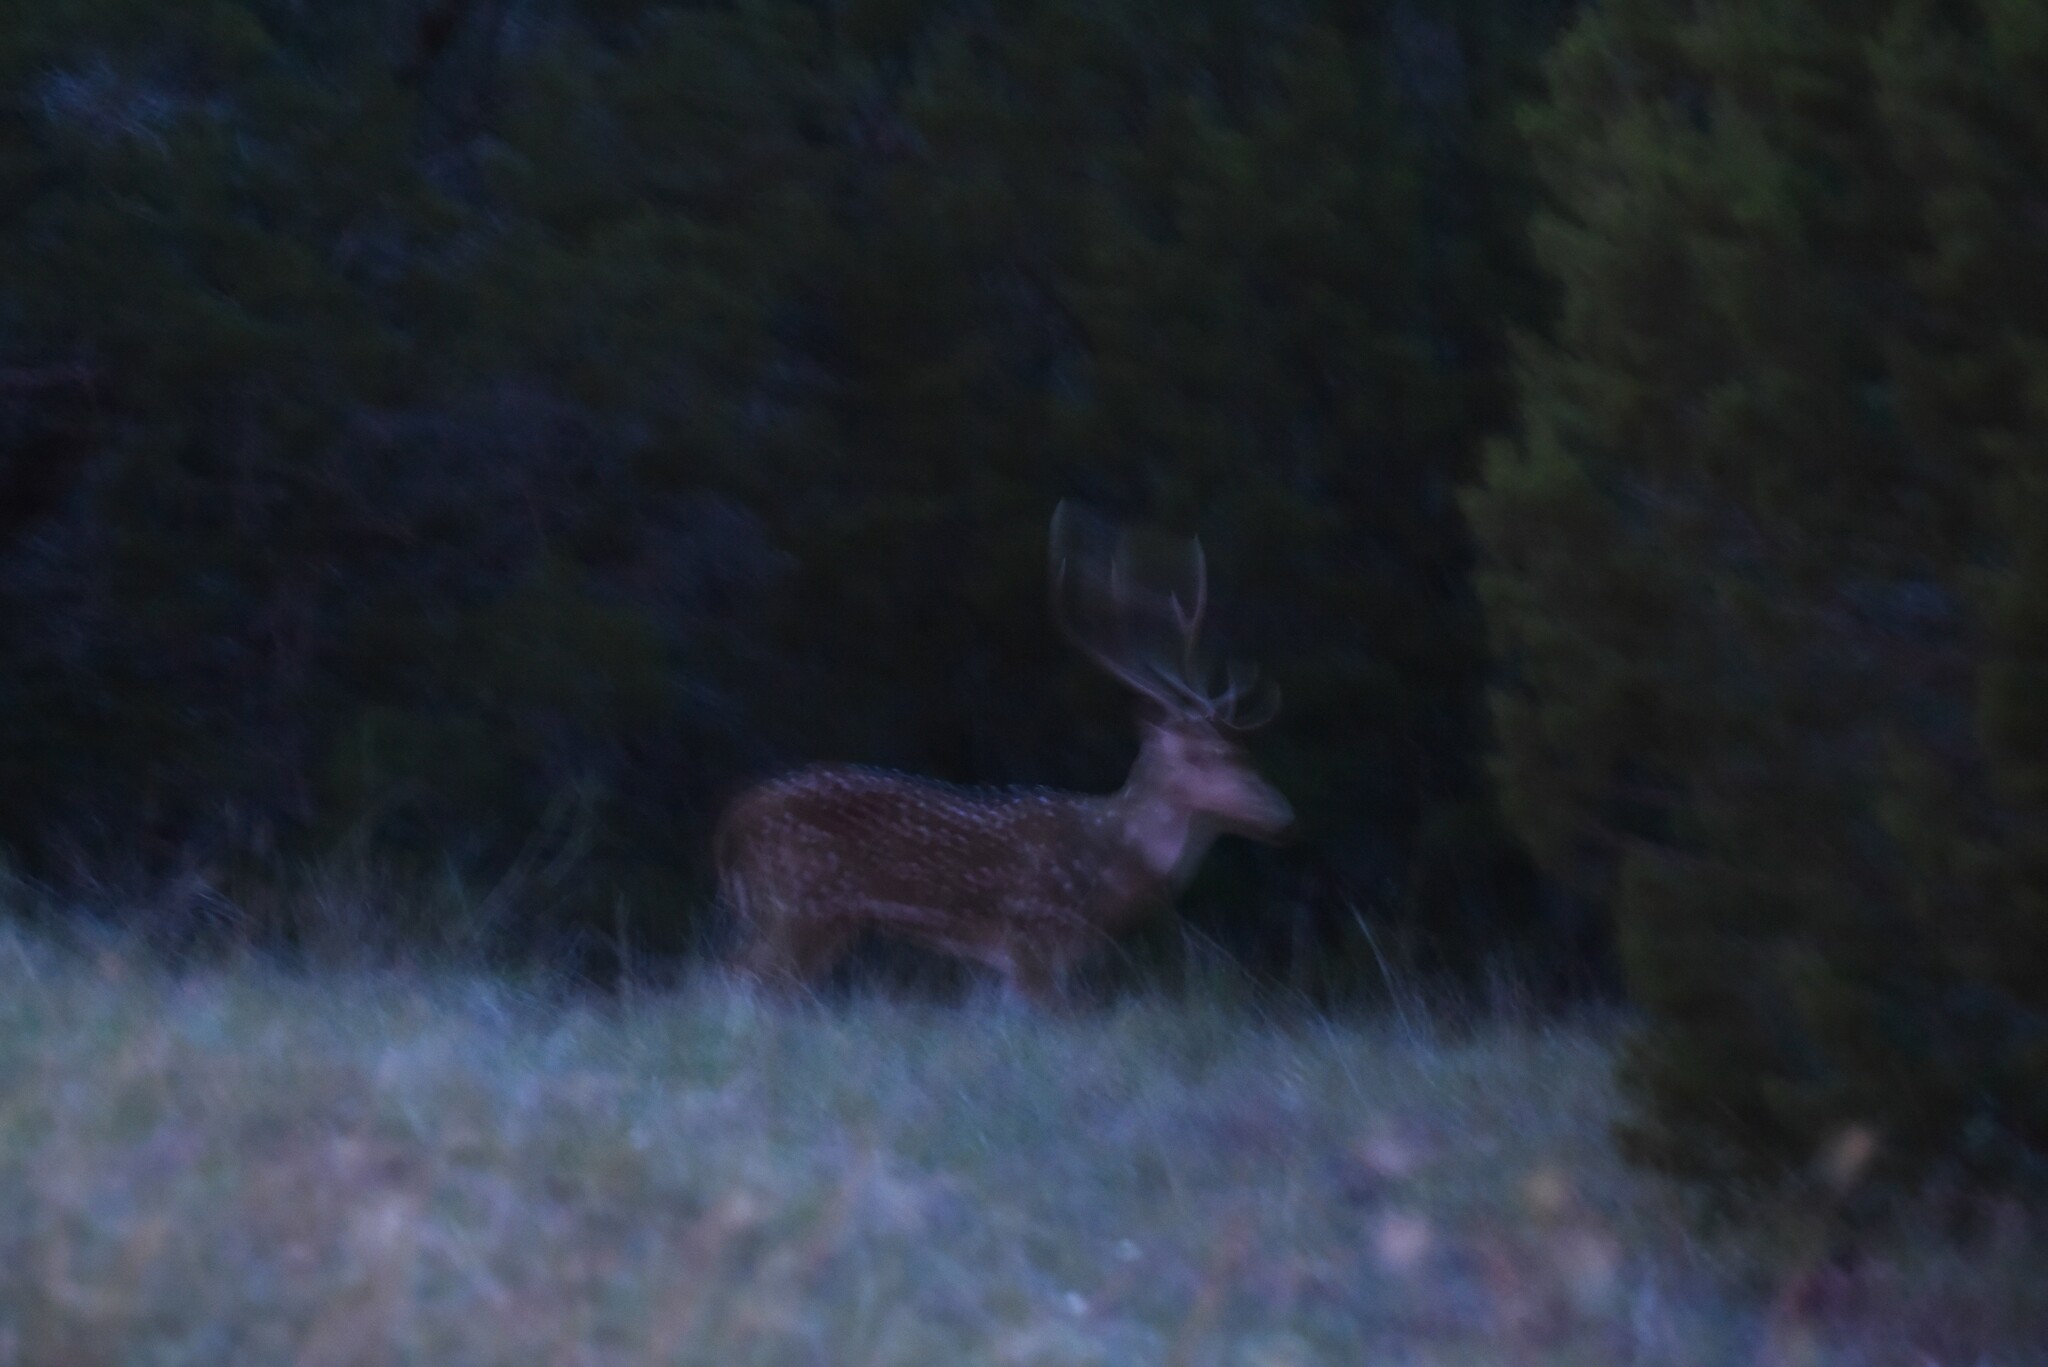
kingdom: Animalia
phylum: Chordata
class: Mammalia
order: Artiodactyla
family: Cervidae
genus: Axis
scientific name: Axis axis
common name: Chital
